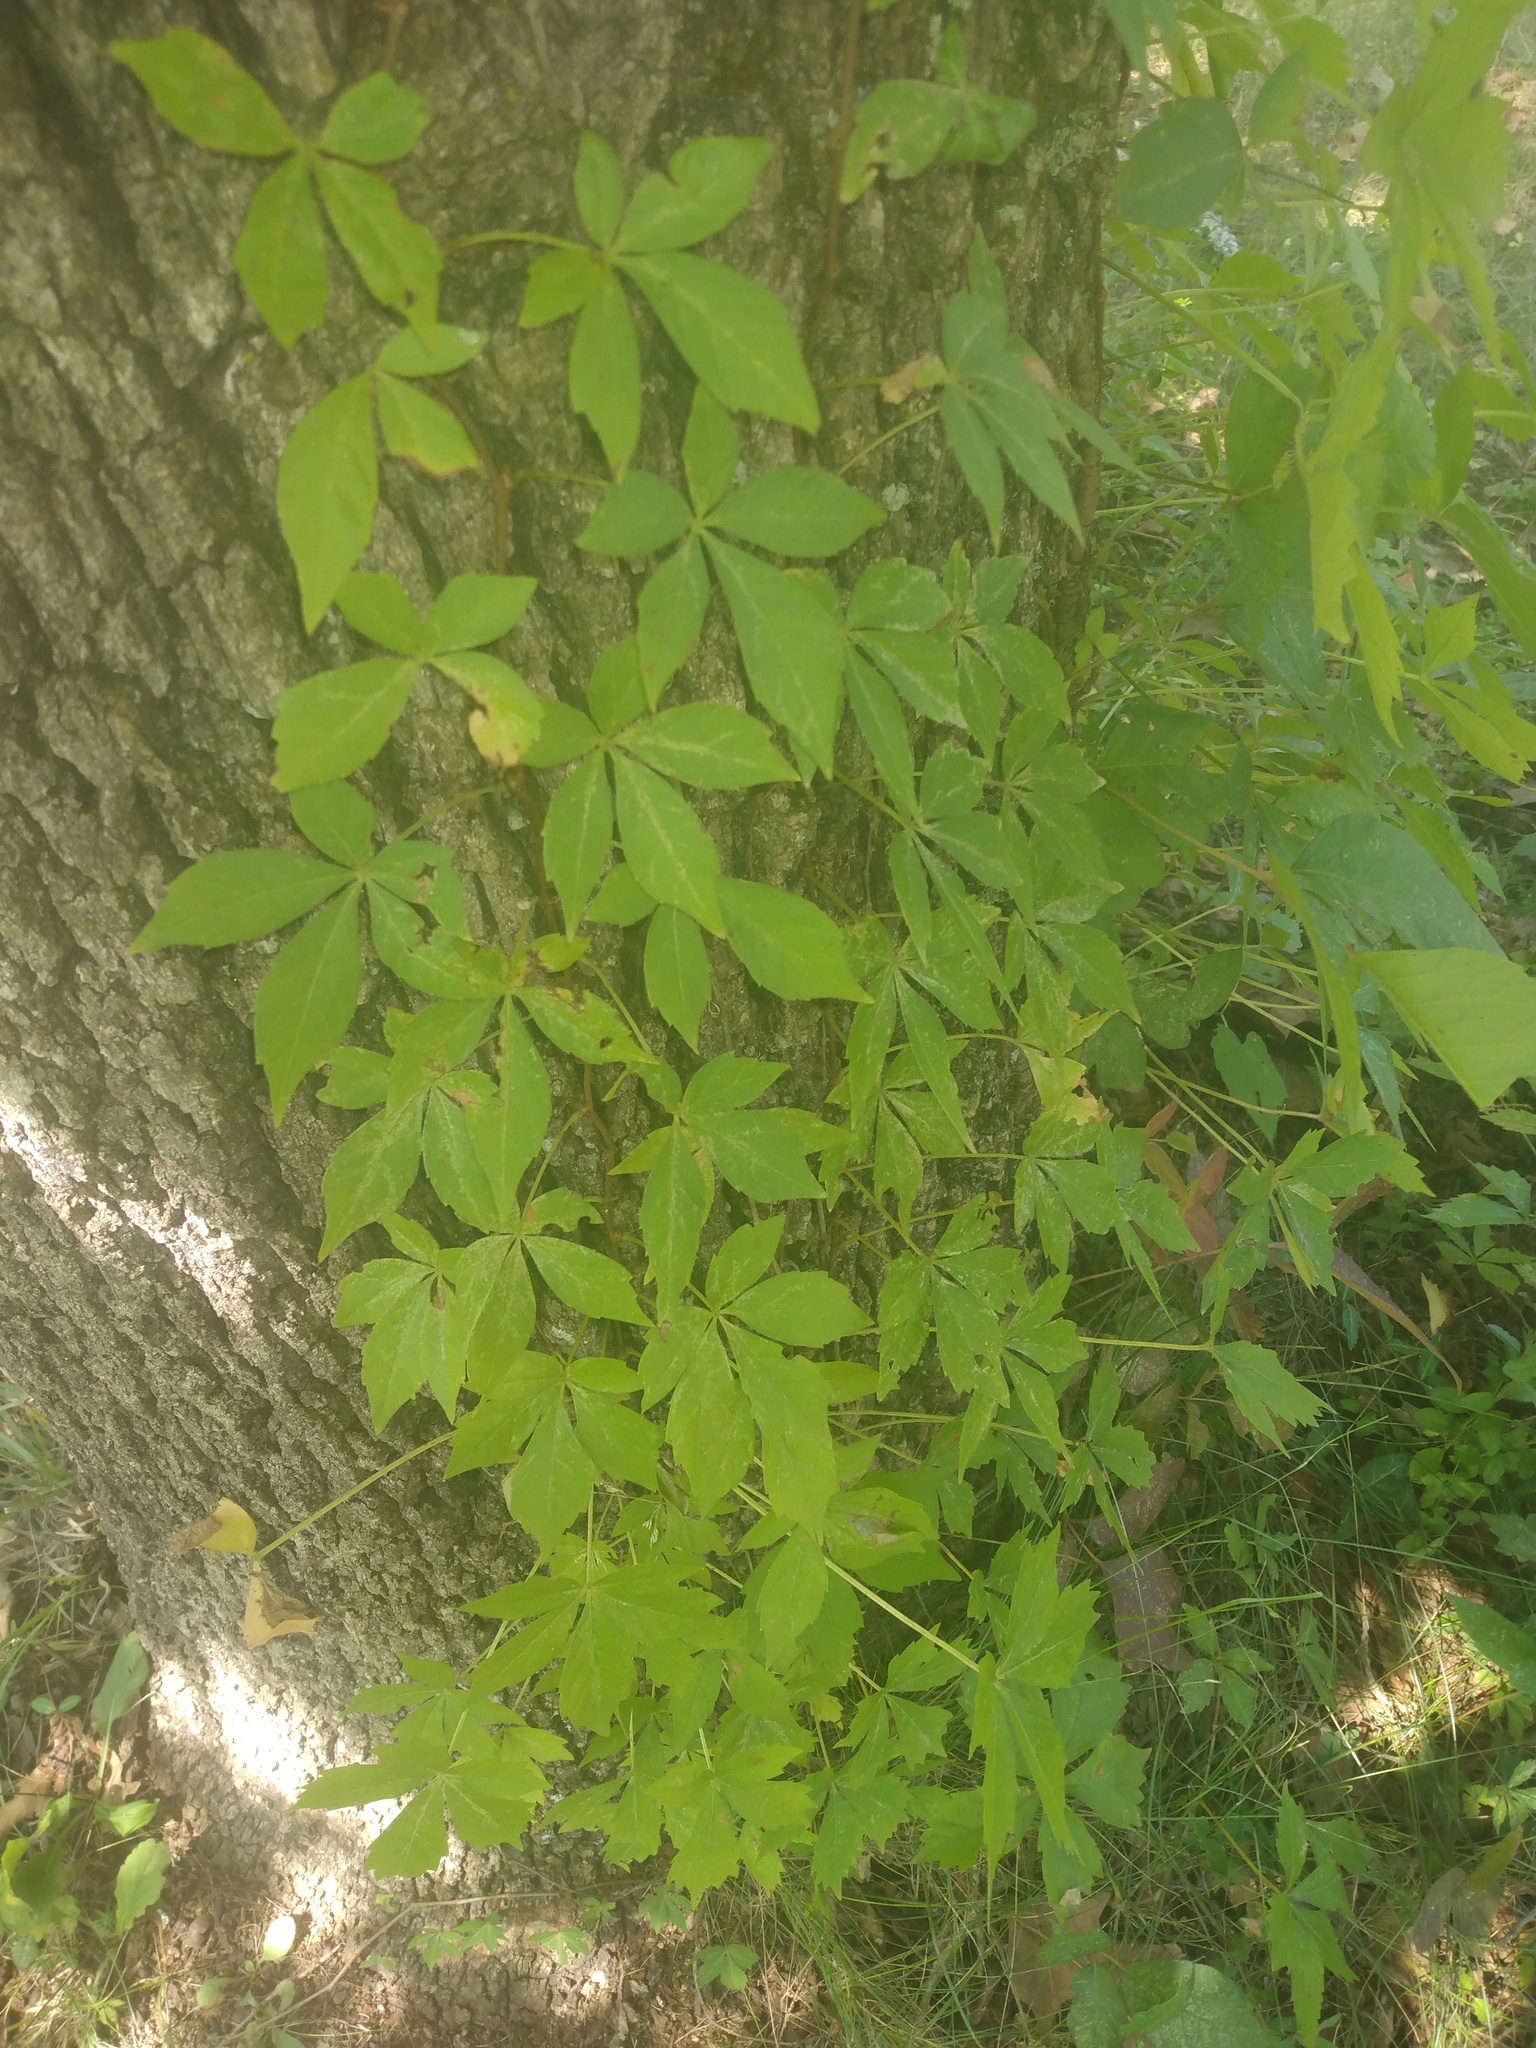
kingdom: Plantae
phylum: Tracheophyta
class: Magnoliopsida
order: Vitales
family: Vitaceae
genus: Parthenocissus
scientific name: Parthenocissus quinquefolia
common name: Virginia-creeper
